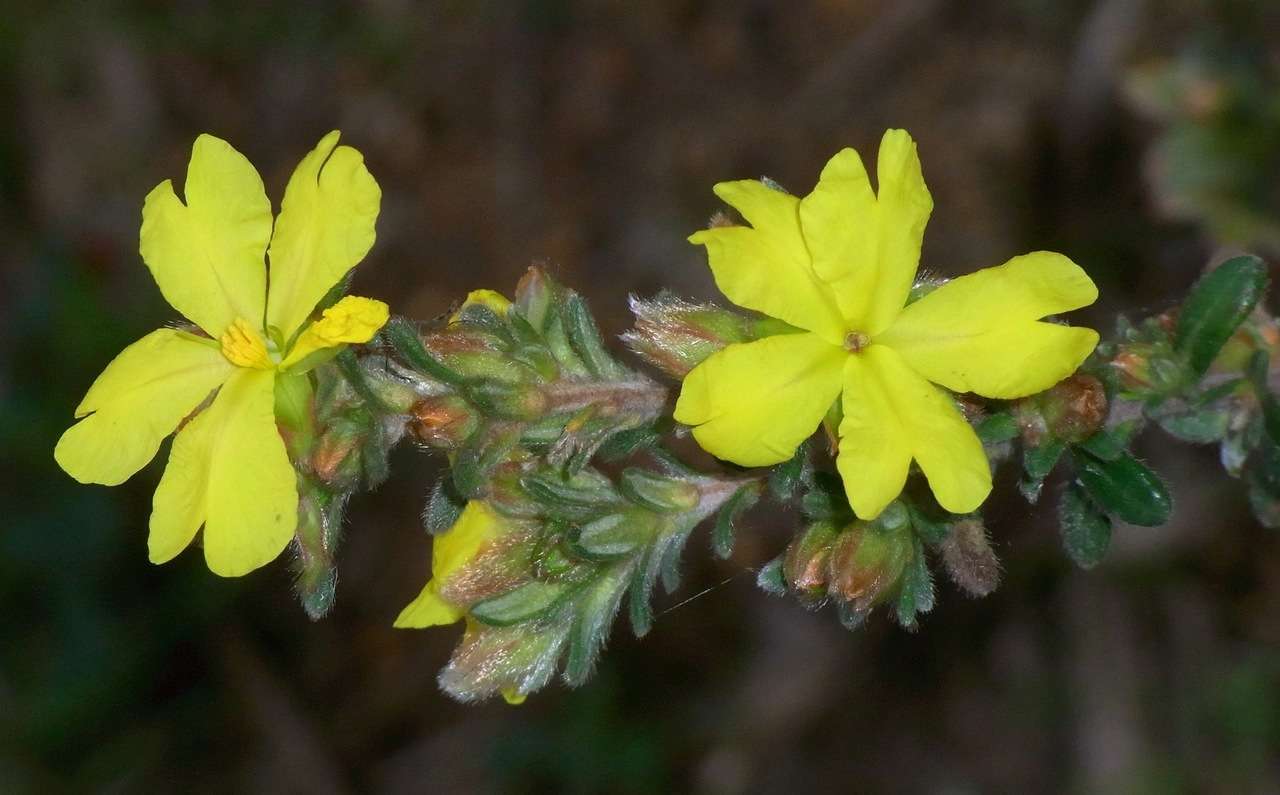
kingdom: Plantae
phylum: Tracheophyta
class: Magnoliopsida
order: Dilleniales
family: Dilleniaceae
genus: Hibbertia
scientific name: Hibbertia sericea
